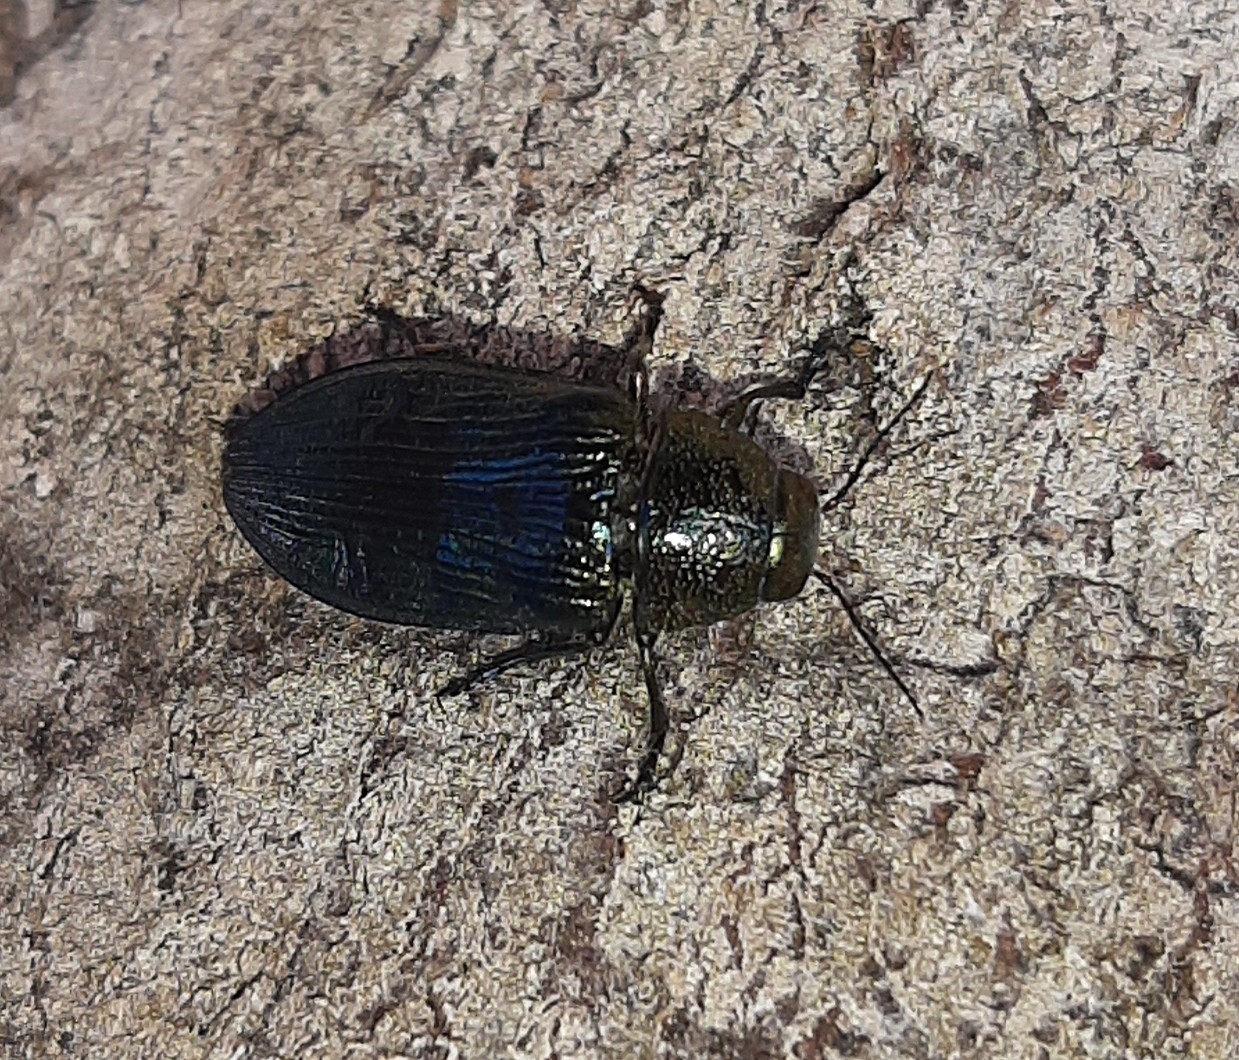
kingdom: Animalia
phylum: Arthropoda
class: Insecta
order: Coleoptera
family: Buprestidae
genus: Buprestis
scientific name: Buprestis rustica
